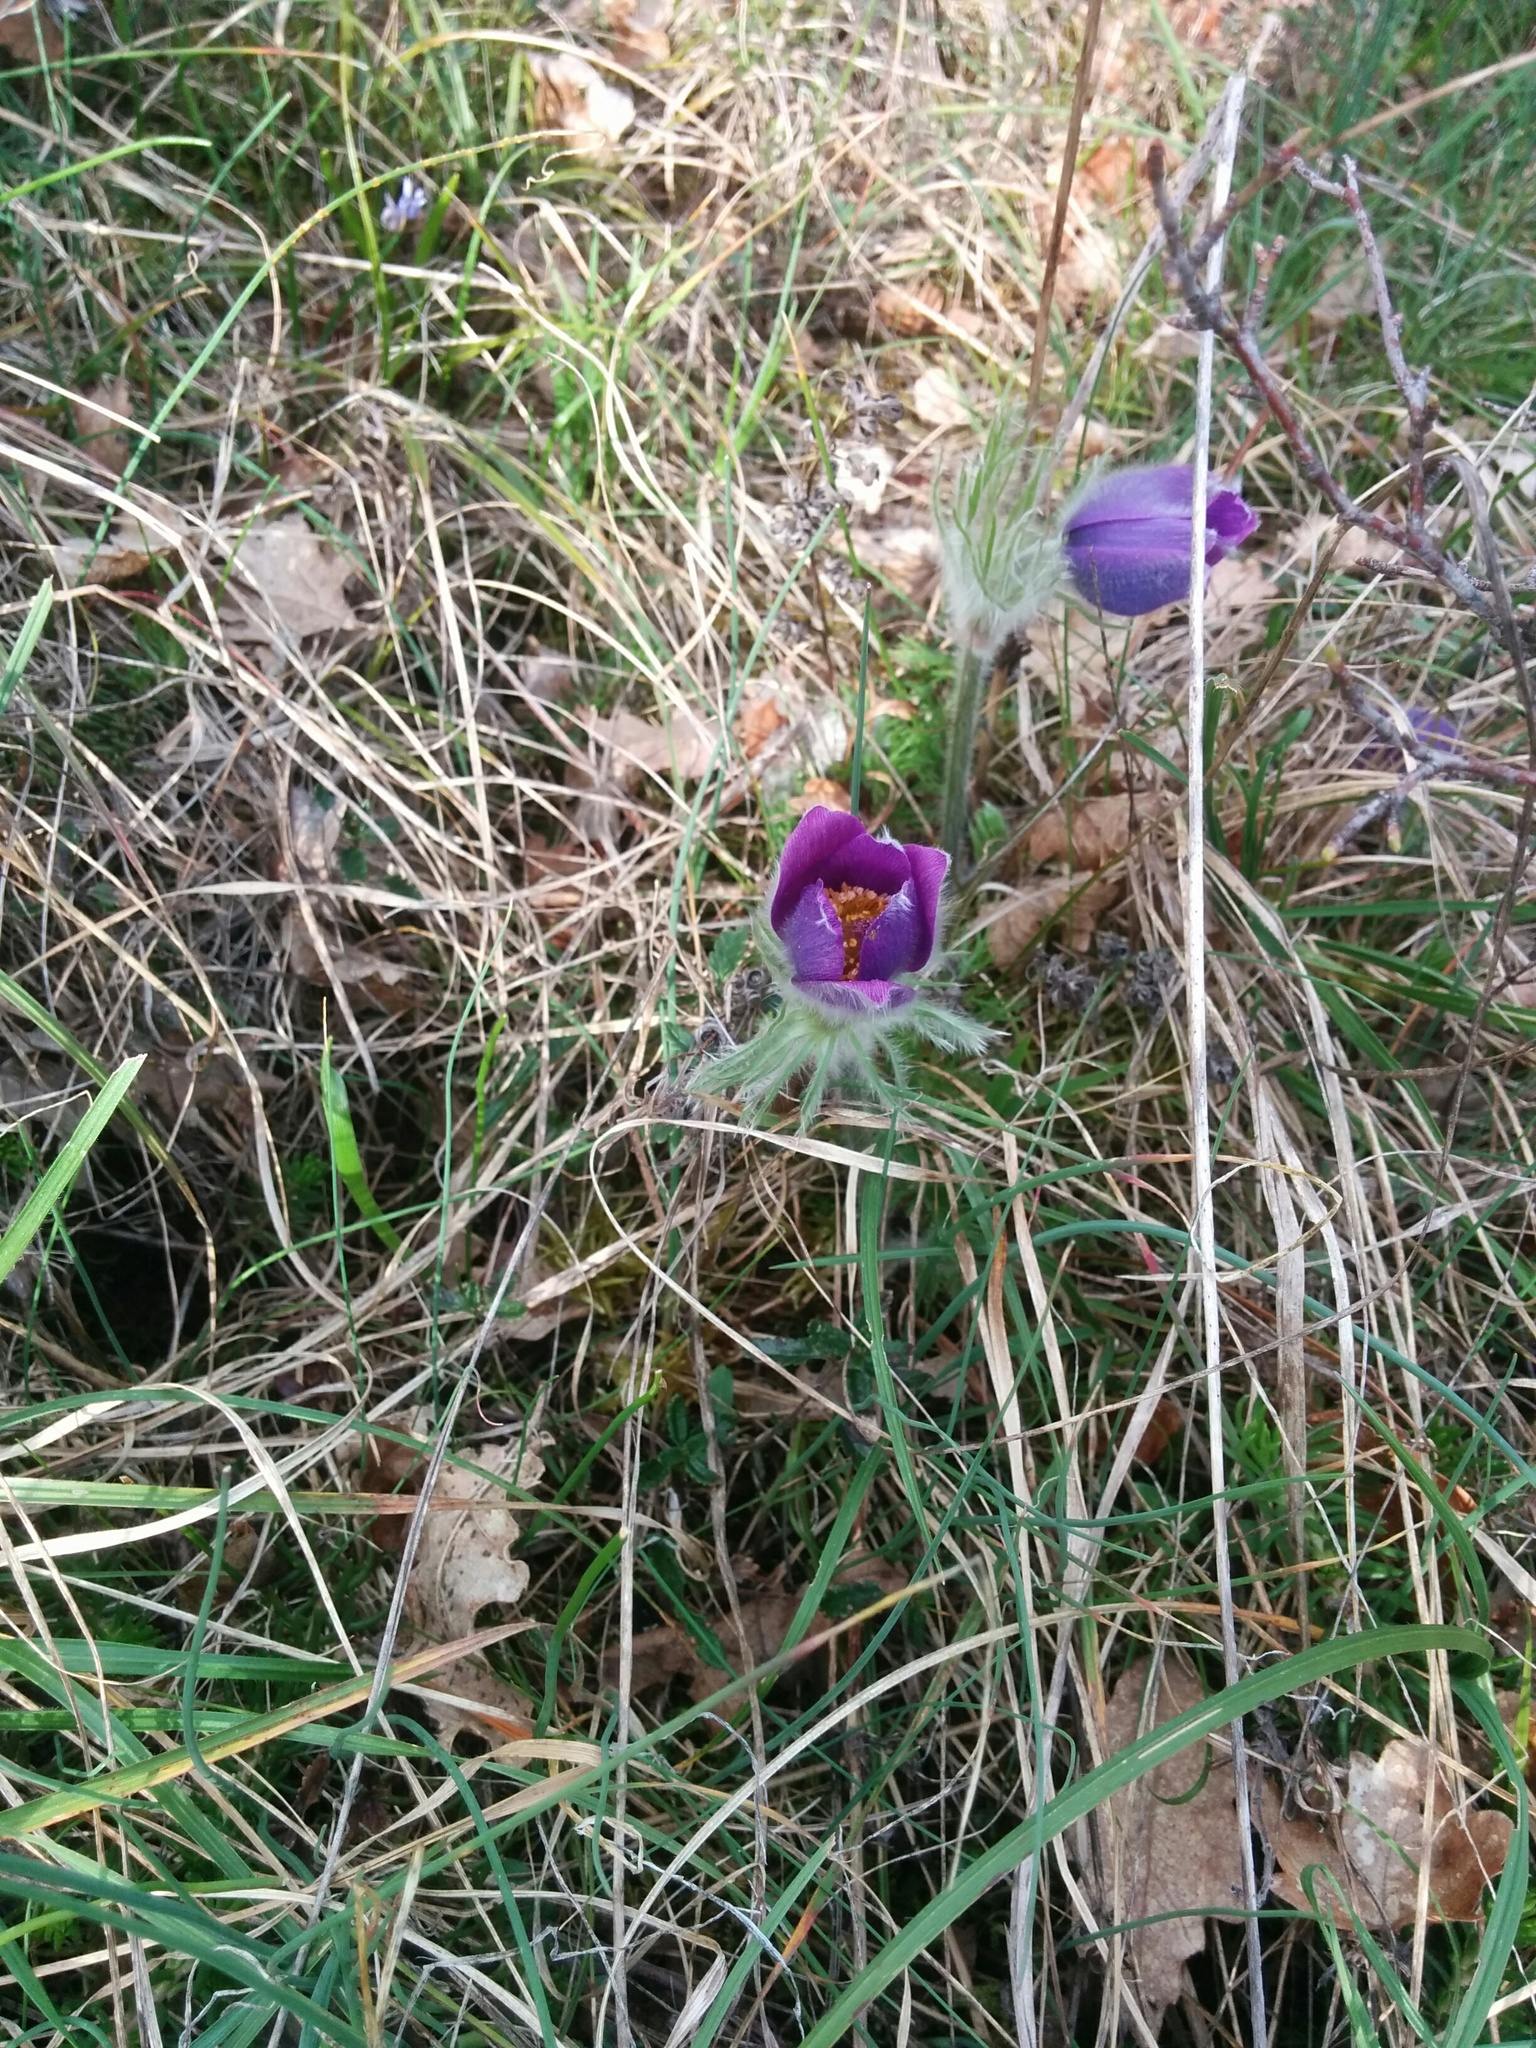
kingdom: Plantae
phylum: Tracheophyta
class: Magnoliopsida
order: Ranunculales
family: Ranunculaceae
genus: Pulsatilla
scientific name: Pulsatilla vulgaris
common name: Pasqueflower
